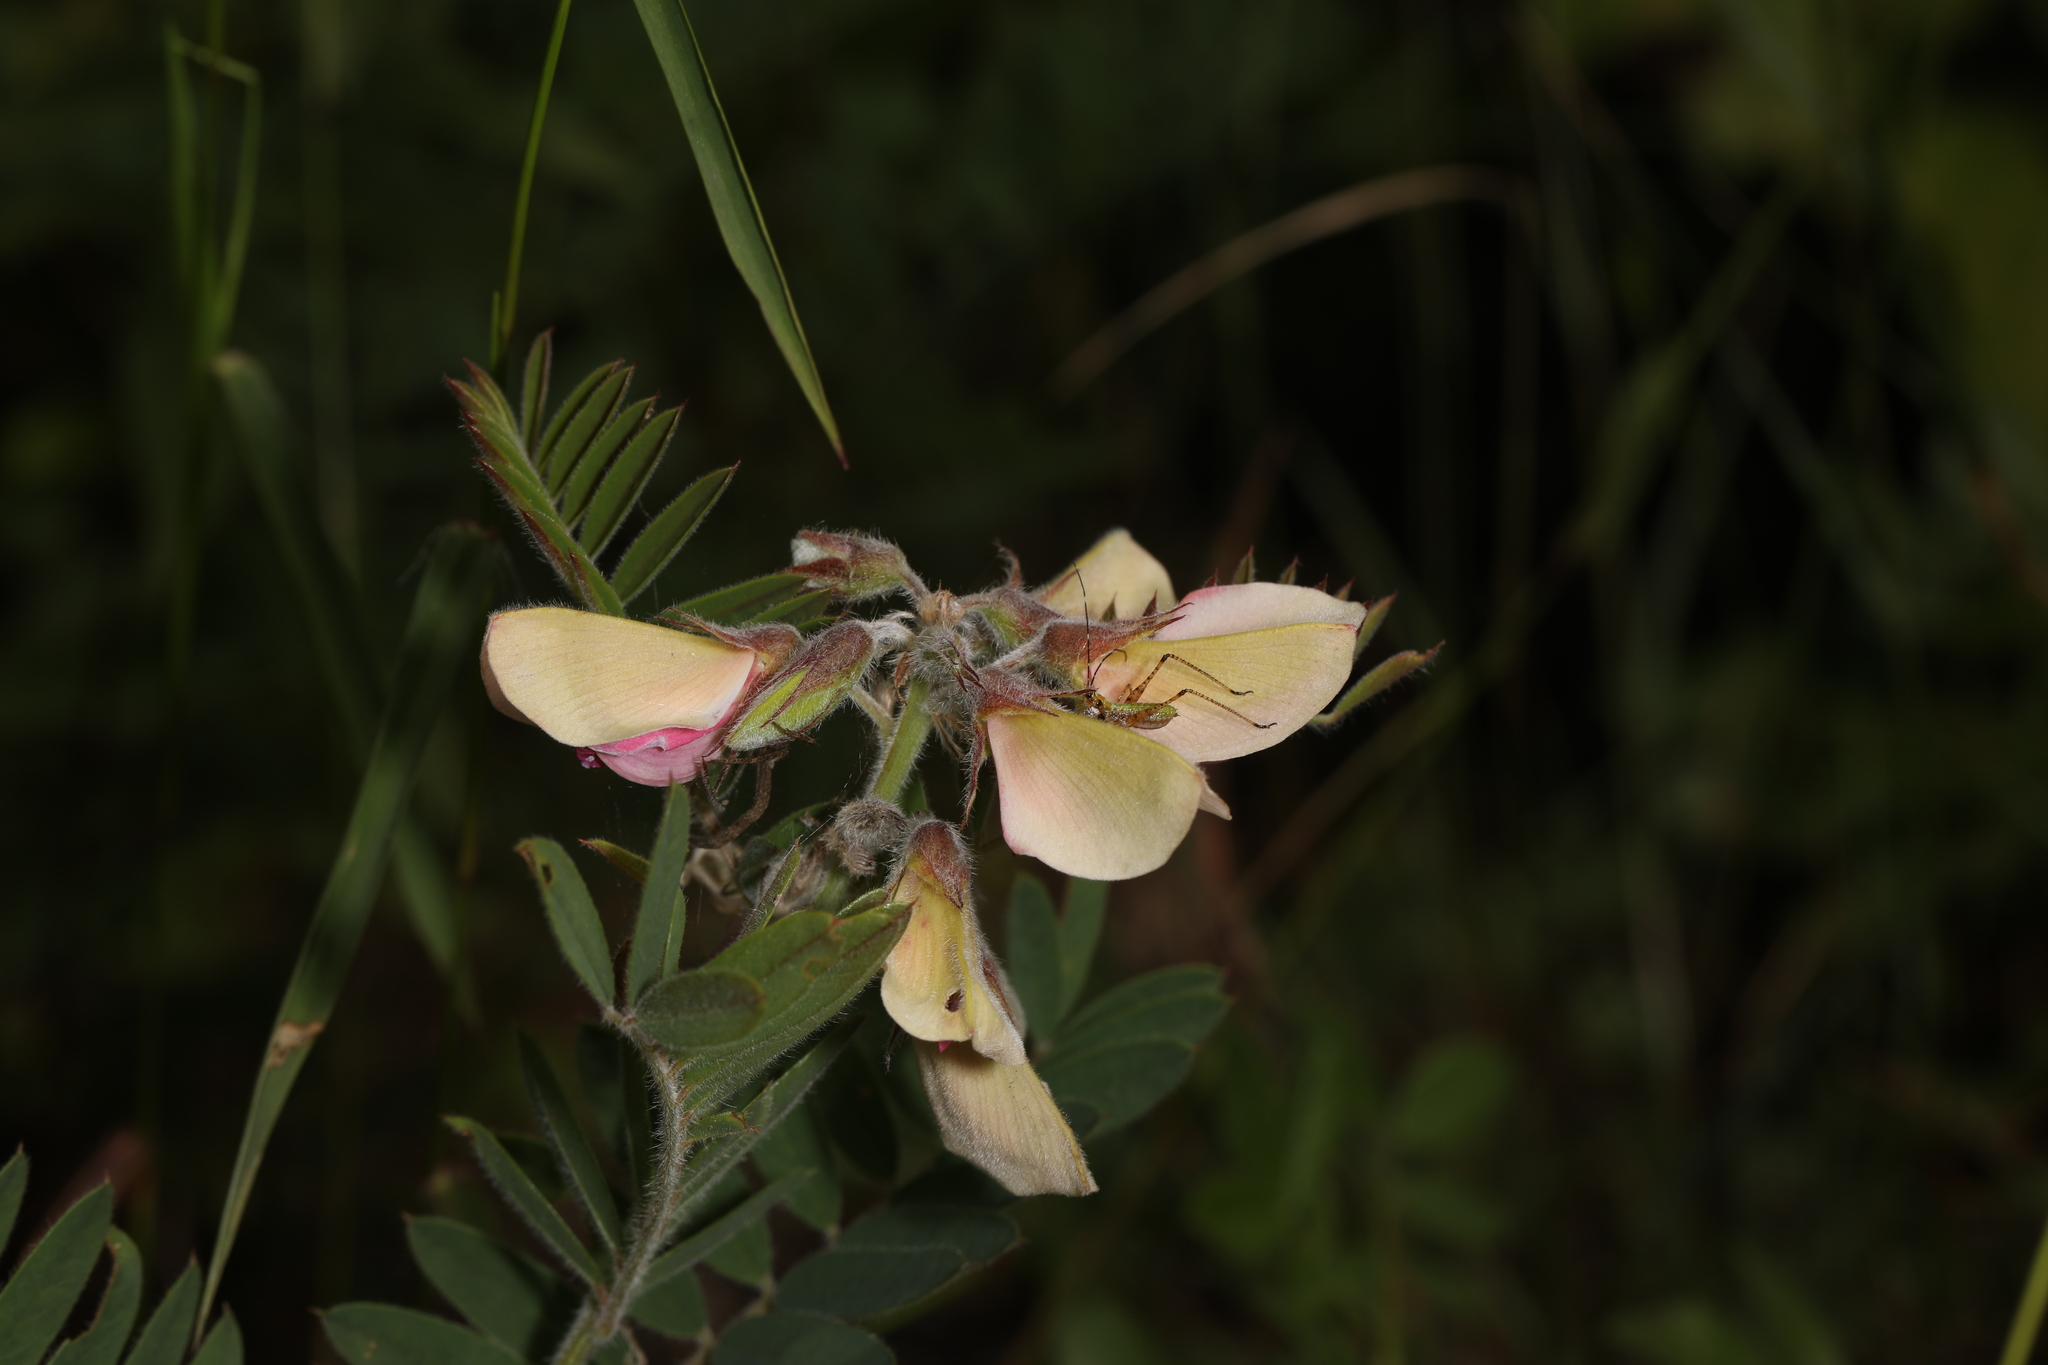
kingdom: Plantae
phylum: Tracheophyta
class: Magnoliopsida
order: Fabales
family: Fabaceae
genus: Tephrosia
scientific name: Tephrosia virginiana
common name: Rabbit-pea
